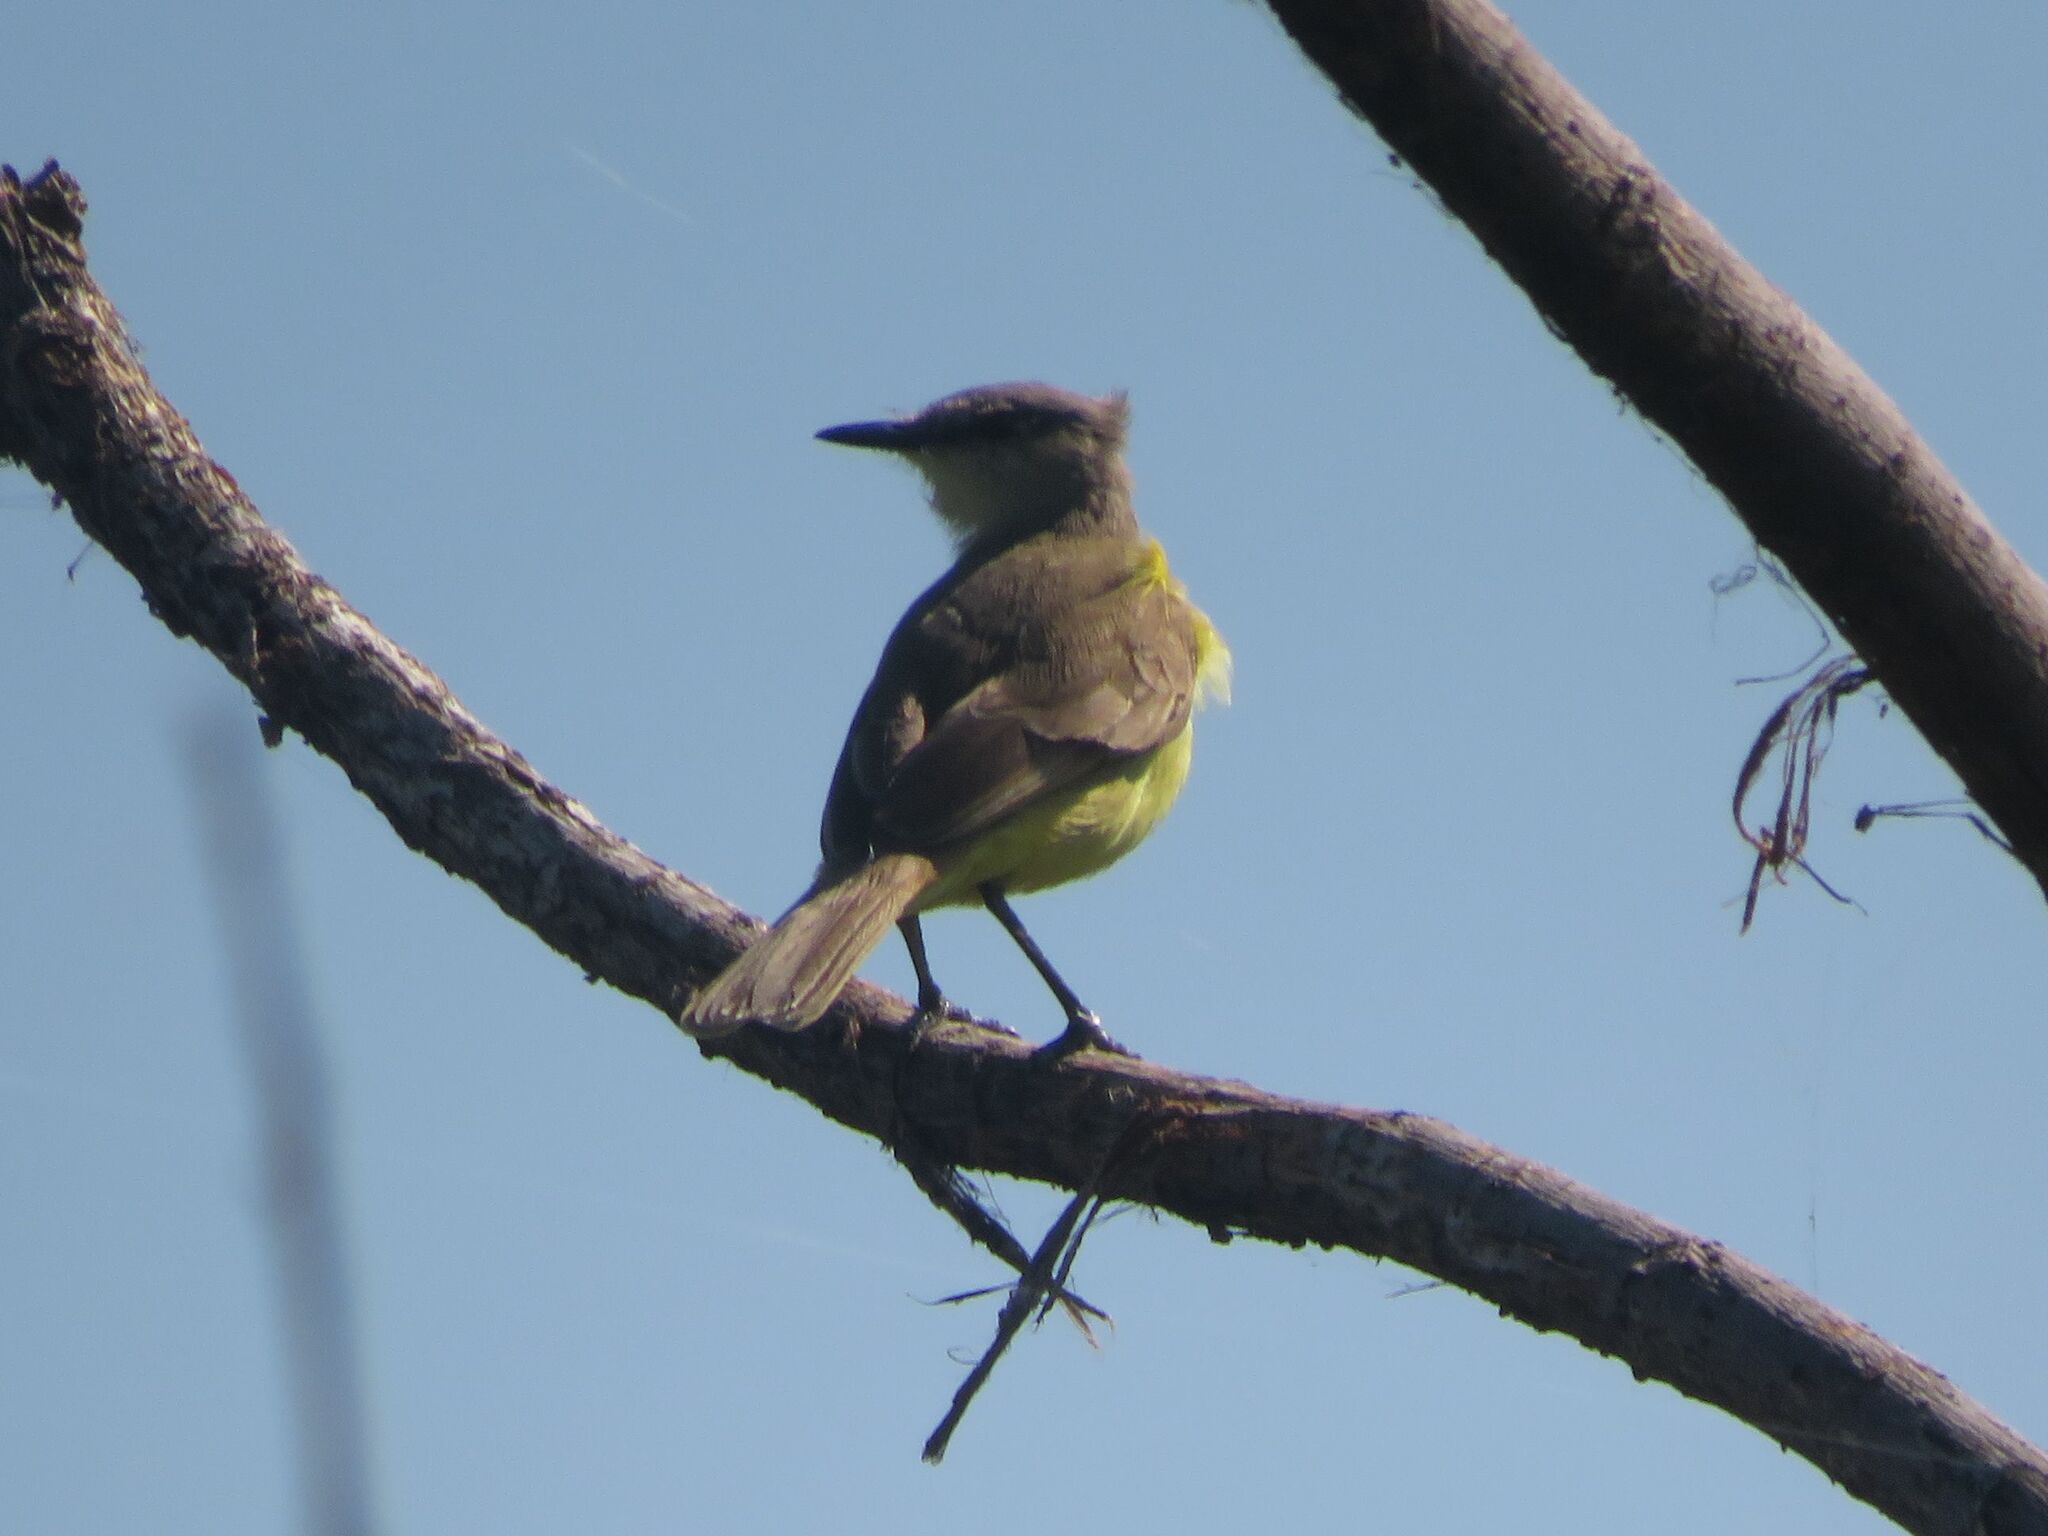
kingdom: Animalia
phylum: Chordata
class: Aves
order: Passeriformes
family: Tyrannidae
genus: Machetornis
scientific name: Machetornis rixosa
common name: Cattle tyrant
